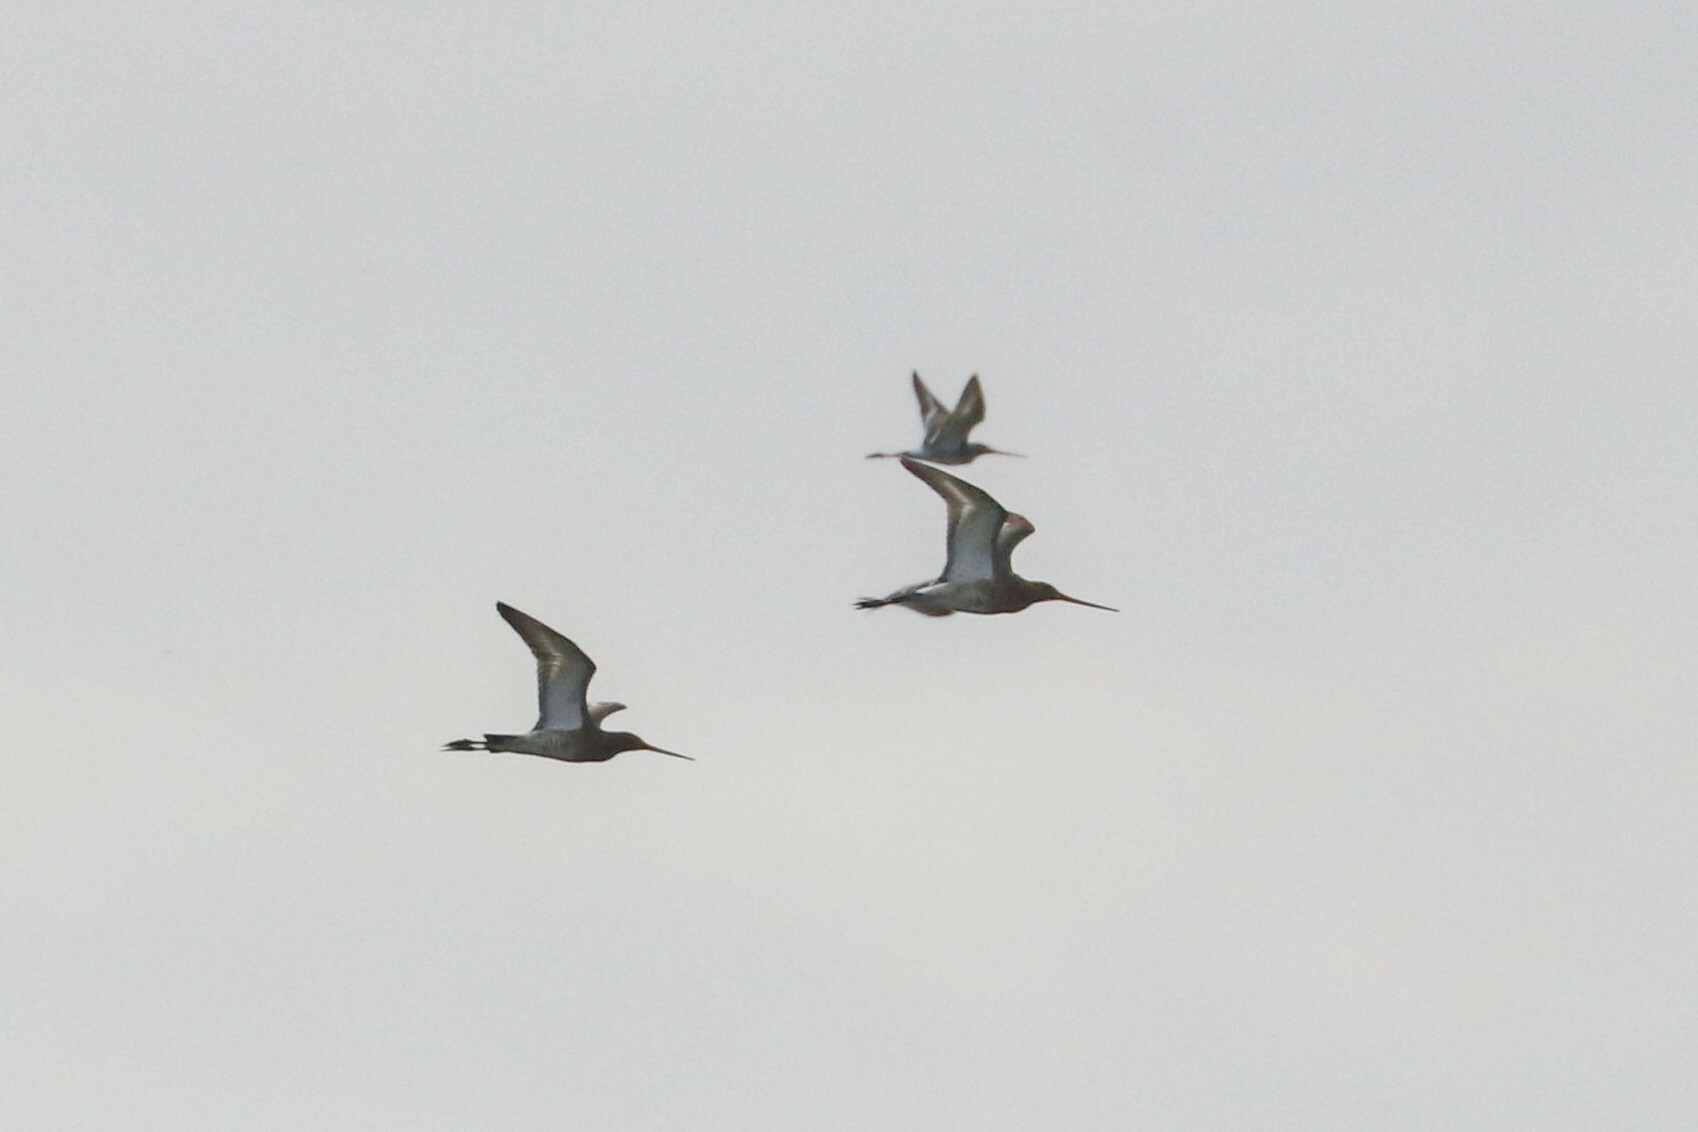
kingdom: Animalia
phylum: Chordata
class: Aves
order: Charadriiformes
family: Scolopacidae
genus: Limosa
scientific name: Limosa limosa
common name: Black-tailed godwit
